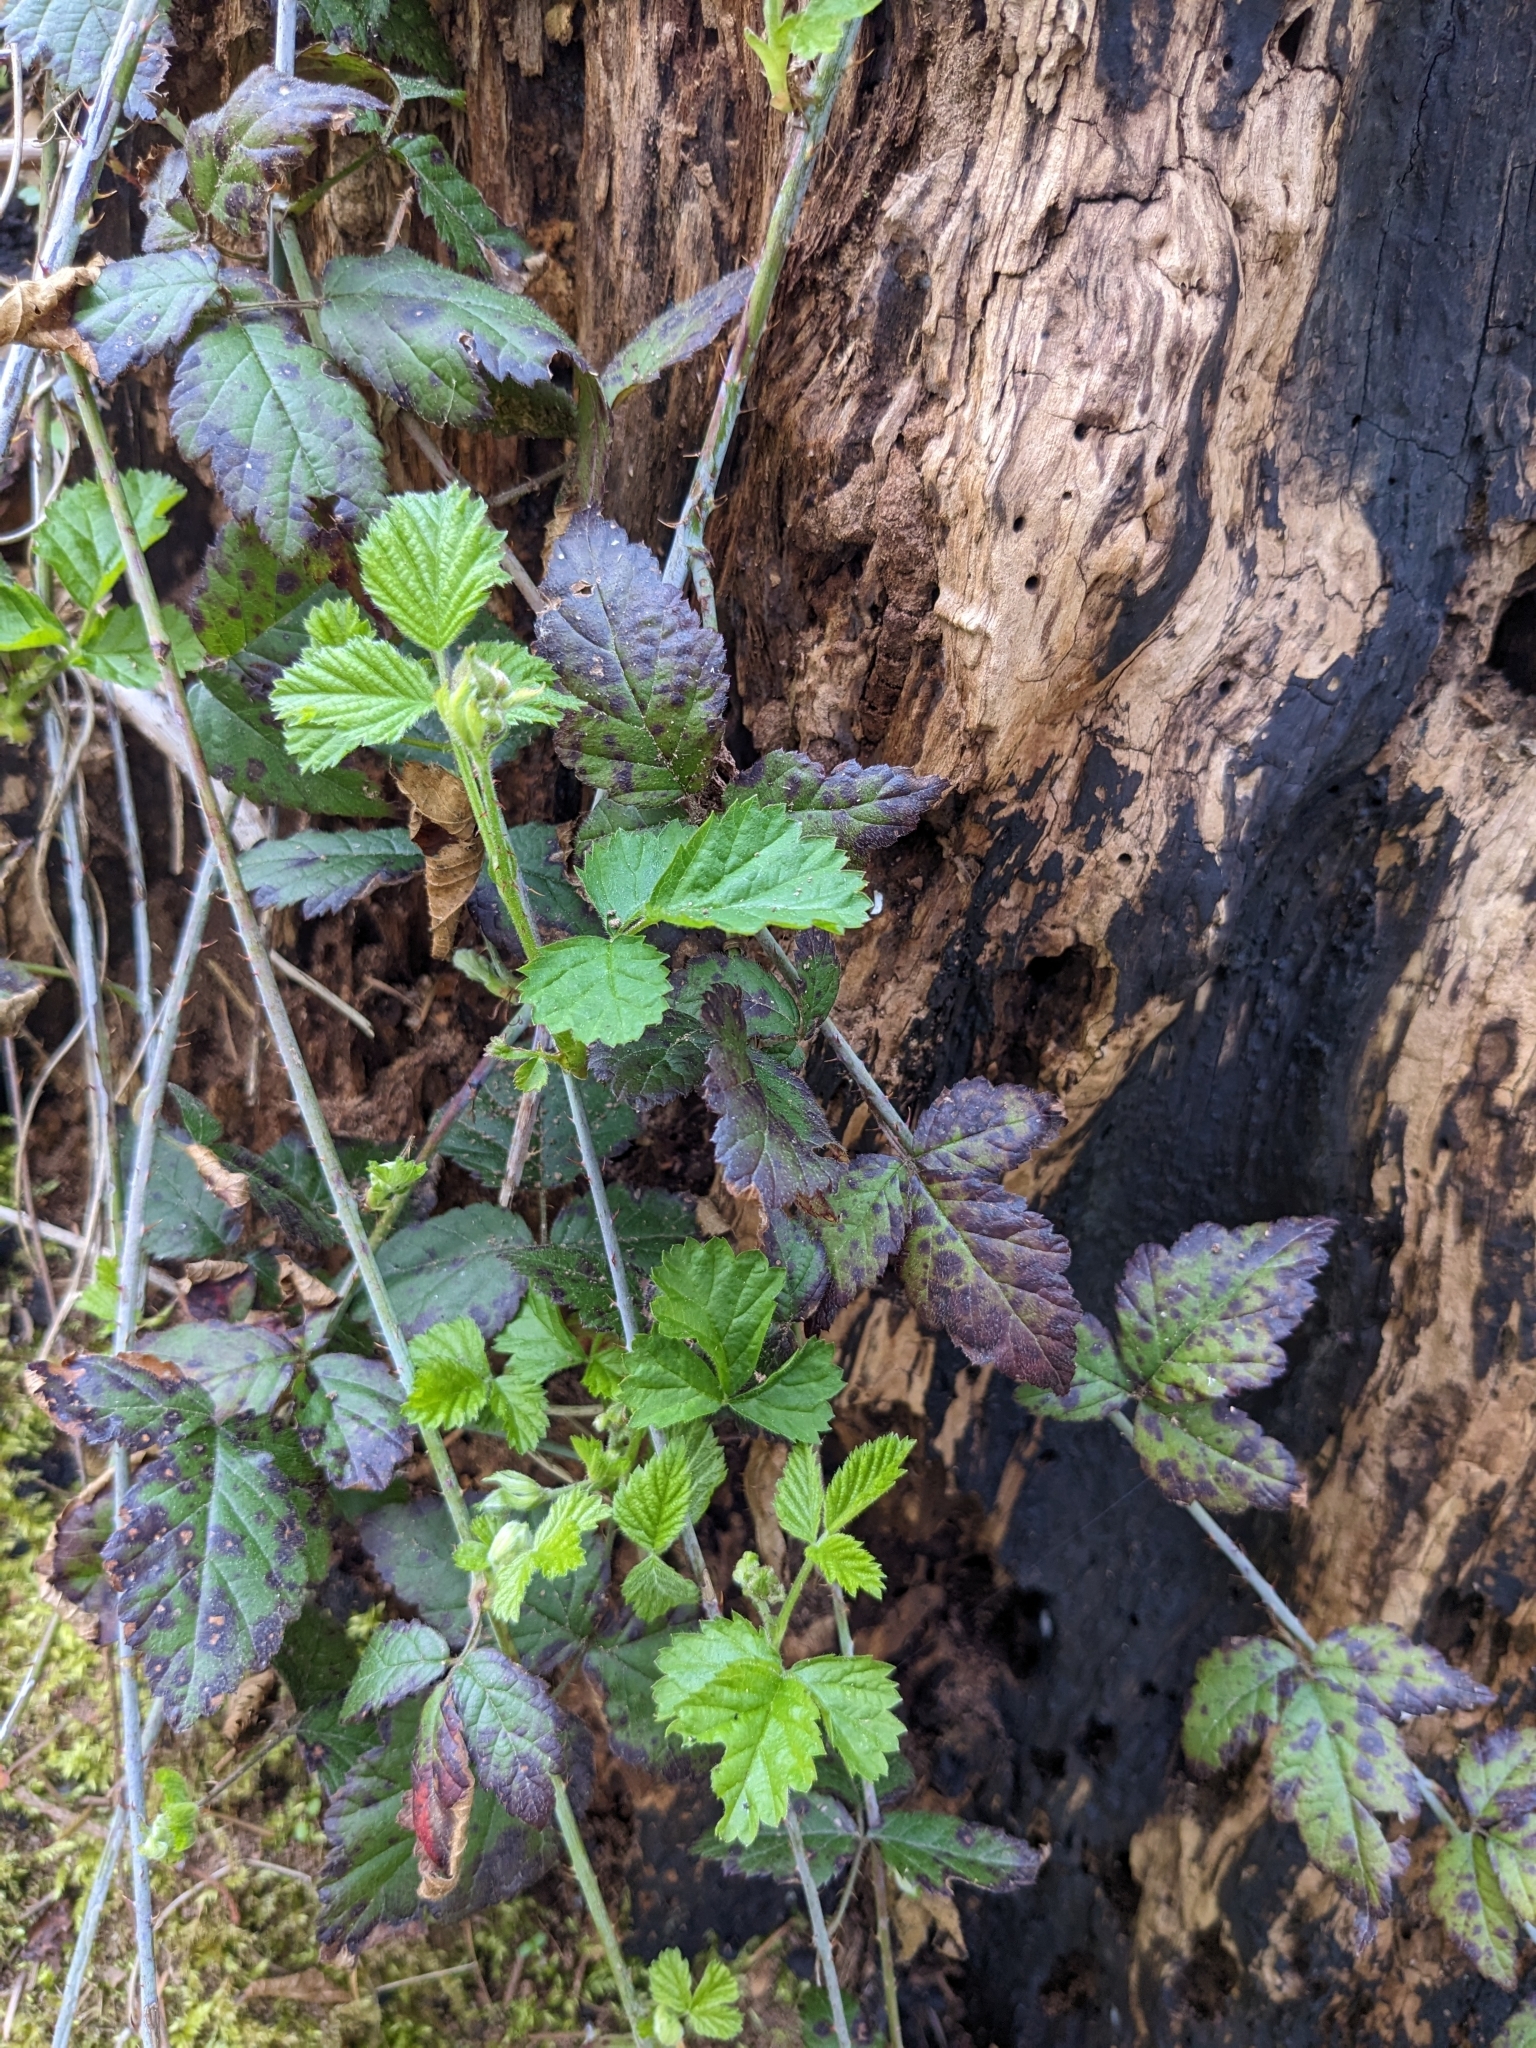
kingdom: Plantae
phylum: Tracheophyta
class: Magnoliopsida
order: Rosales
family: Rosaceae
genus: Rubus
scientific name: Rubus ursinus
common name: Pacific blackberry
